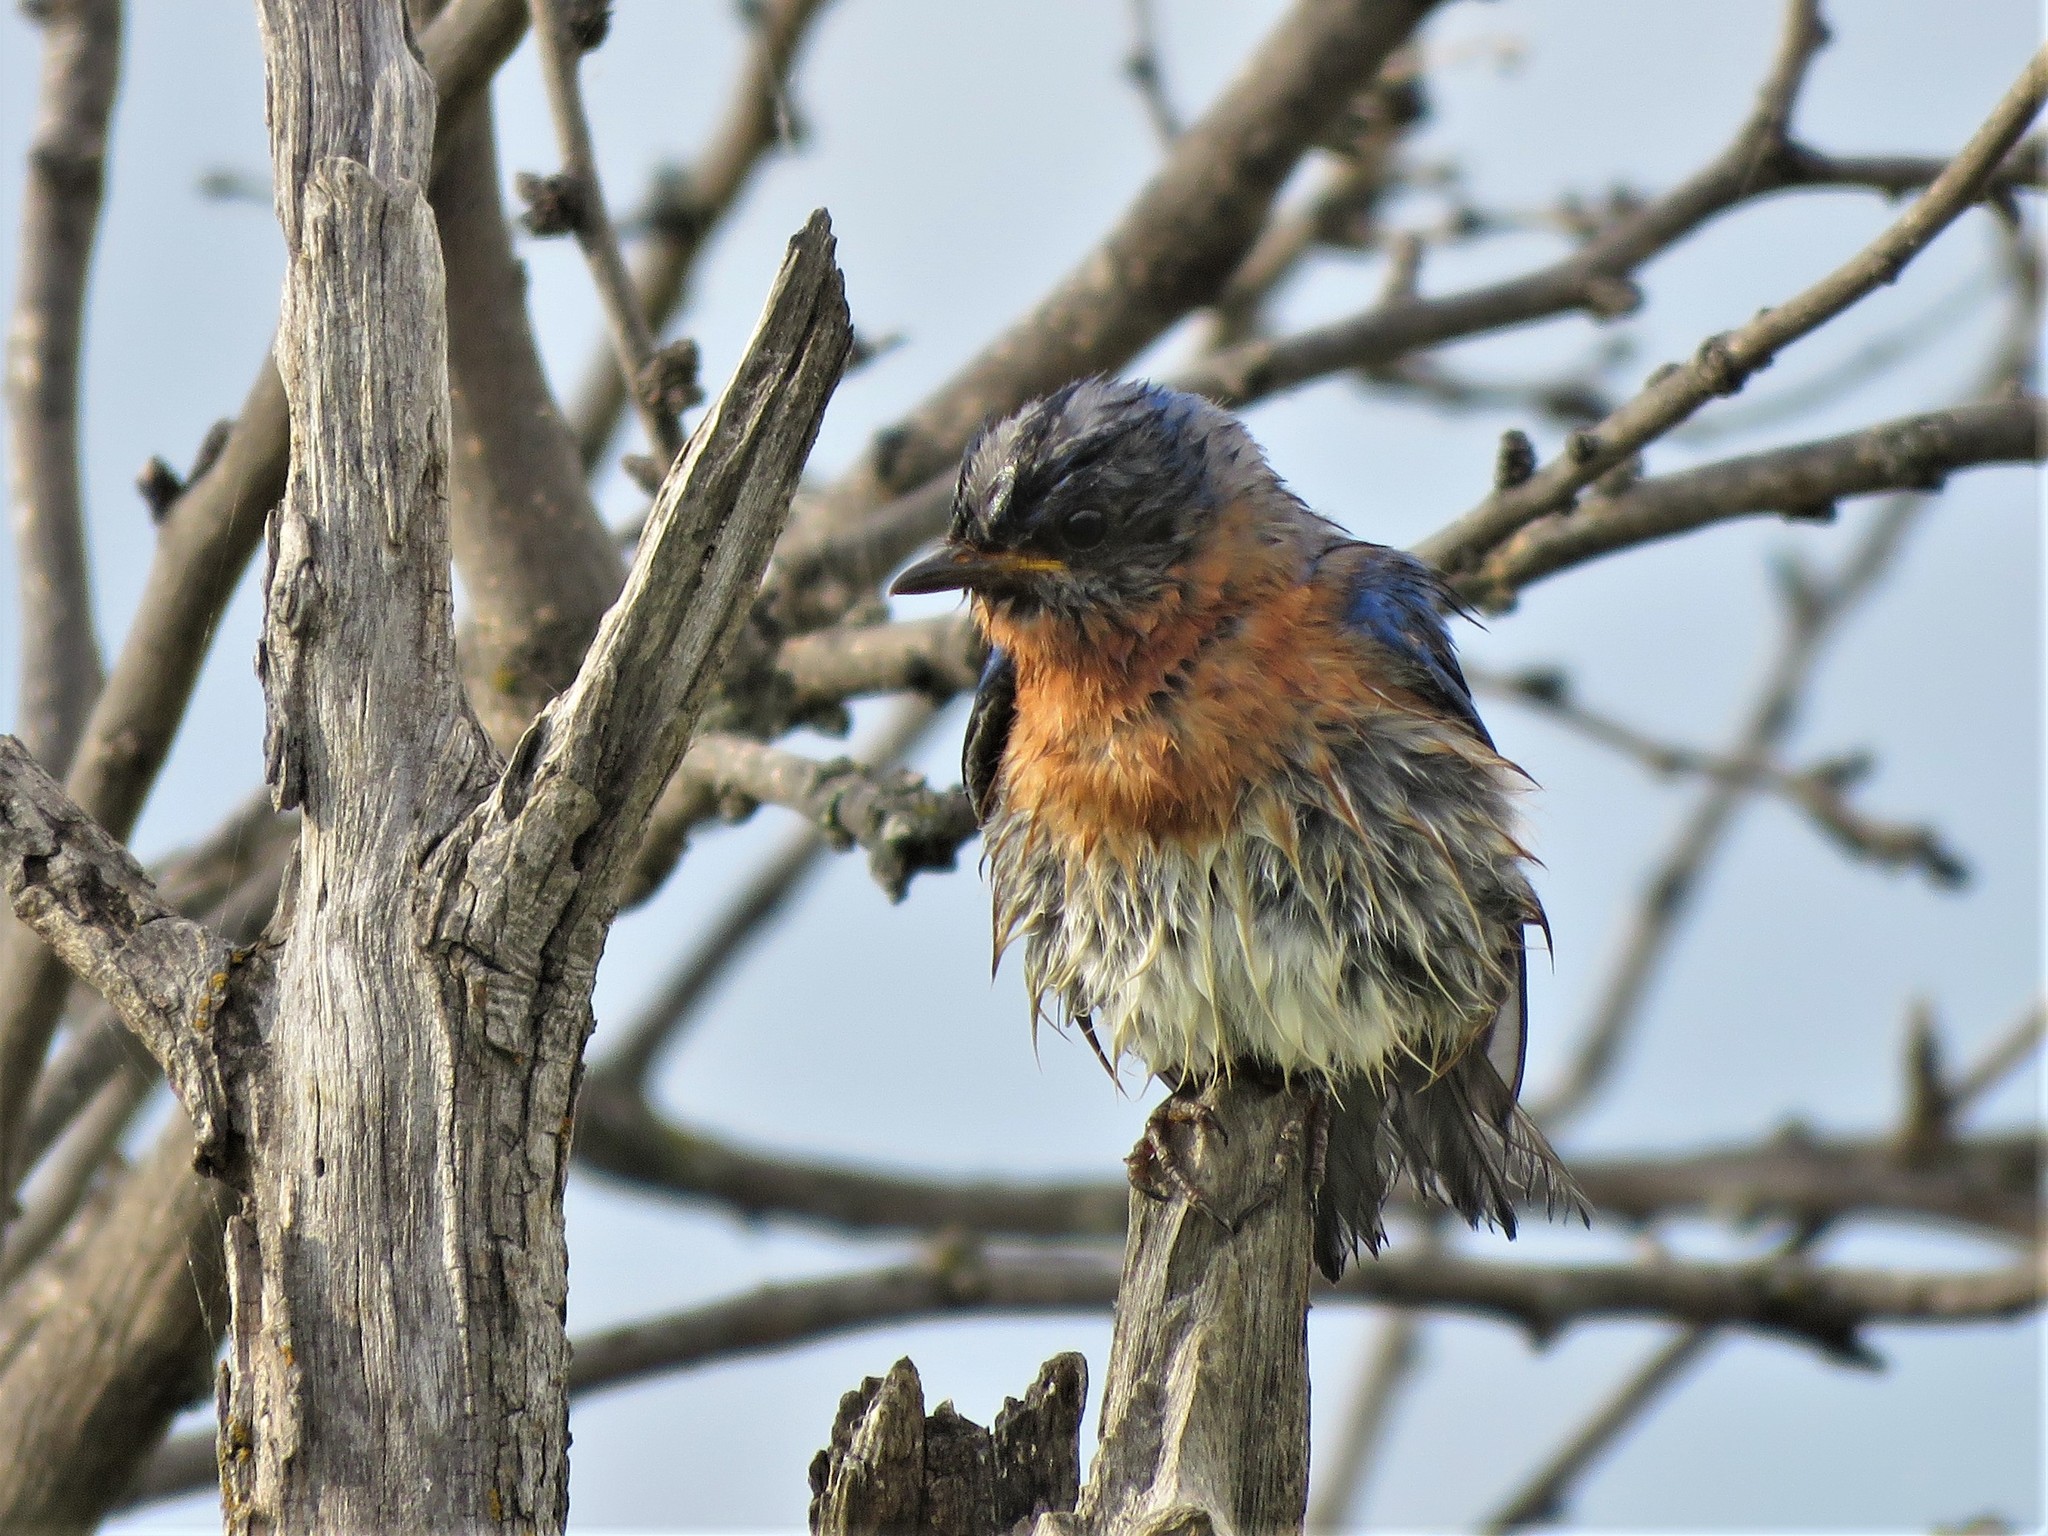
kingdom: Animalia
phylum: Chordata
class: Aves
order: Passeriformes
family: Turdidae
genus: Sialia
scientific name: Sialia sialis
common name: Eastern bluebird
